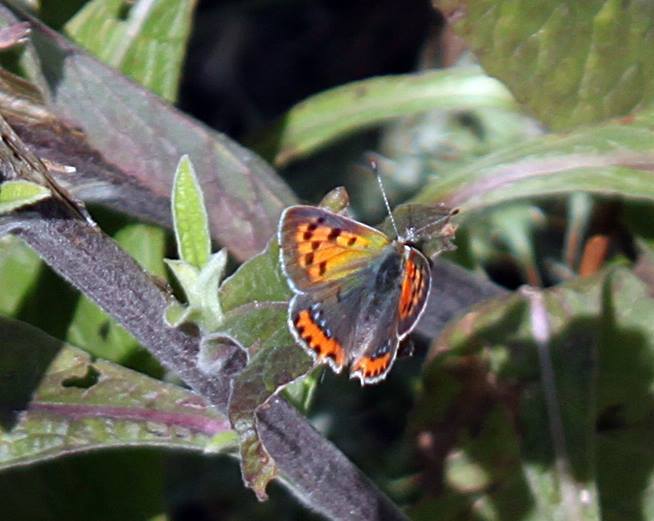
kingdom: Animalia
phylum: Arthropoda
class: Insecta
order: Lepidoptera
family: Lycaenidae
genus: Lycaena
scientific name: Lycaena phlaeas
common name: Small copper
